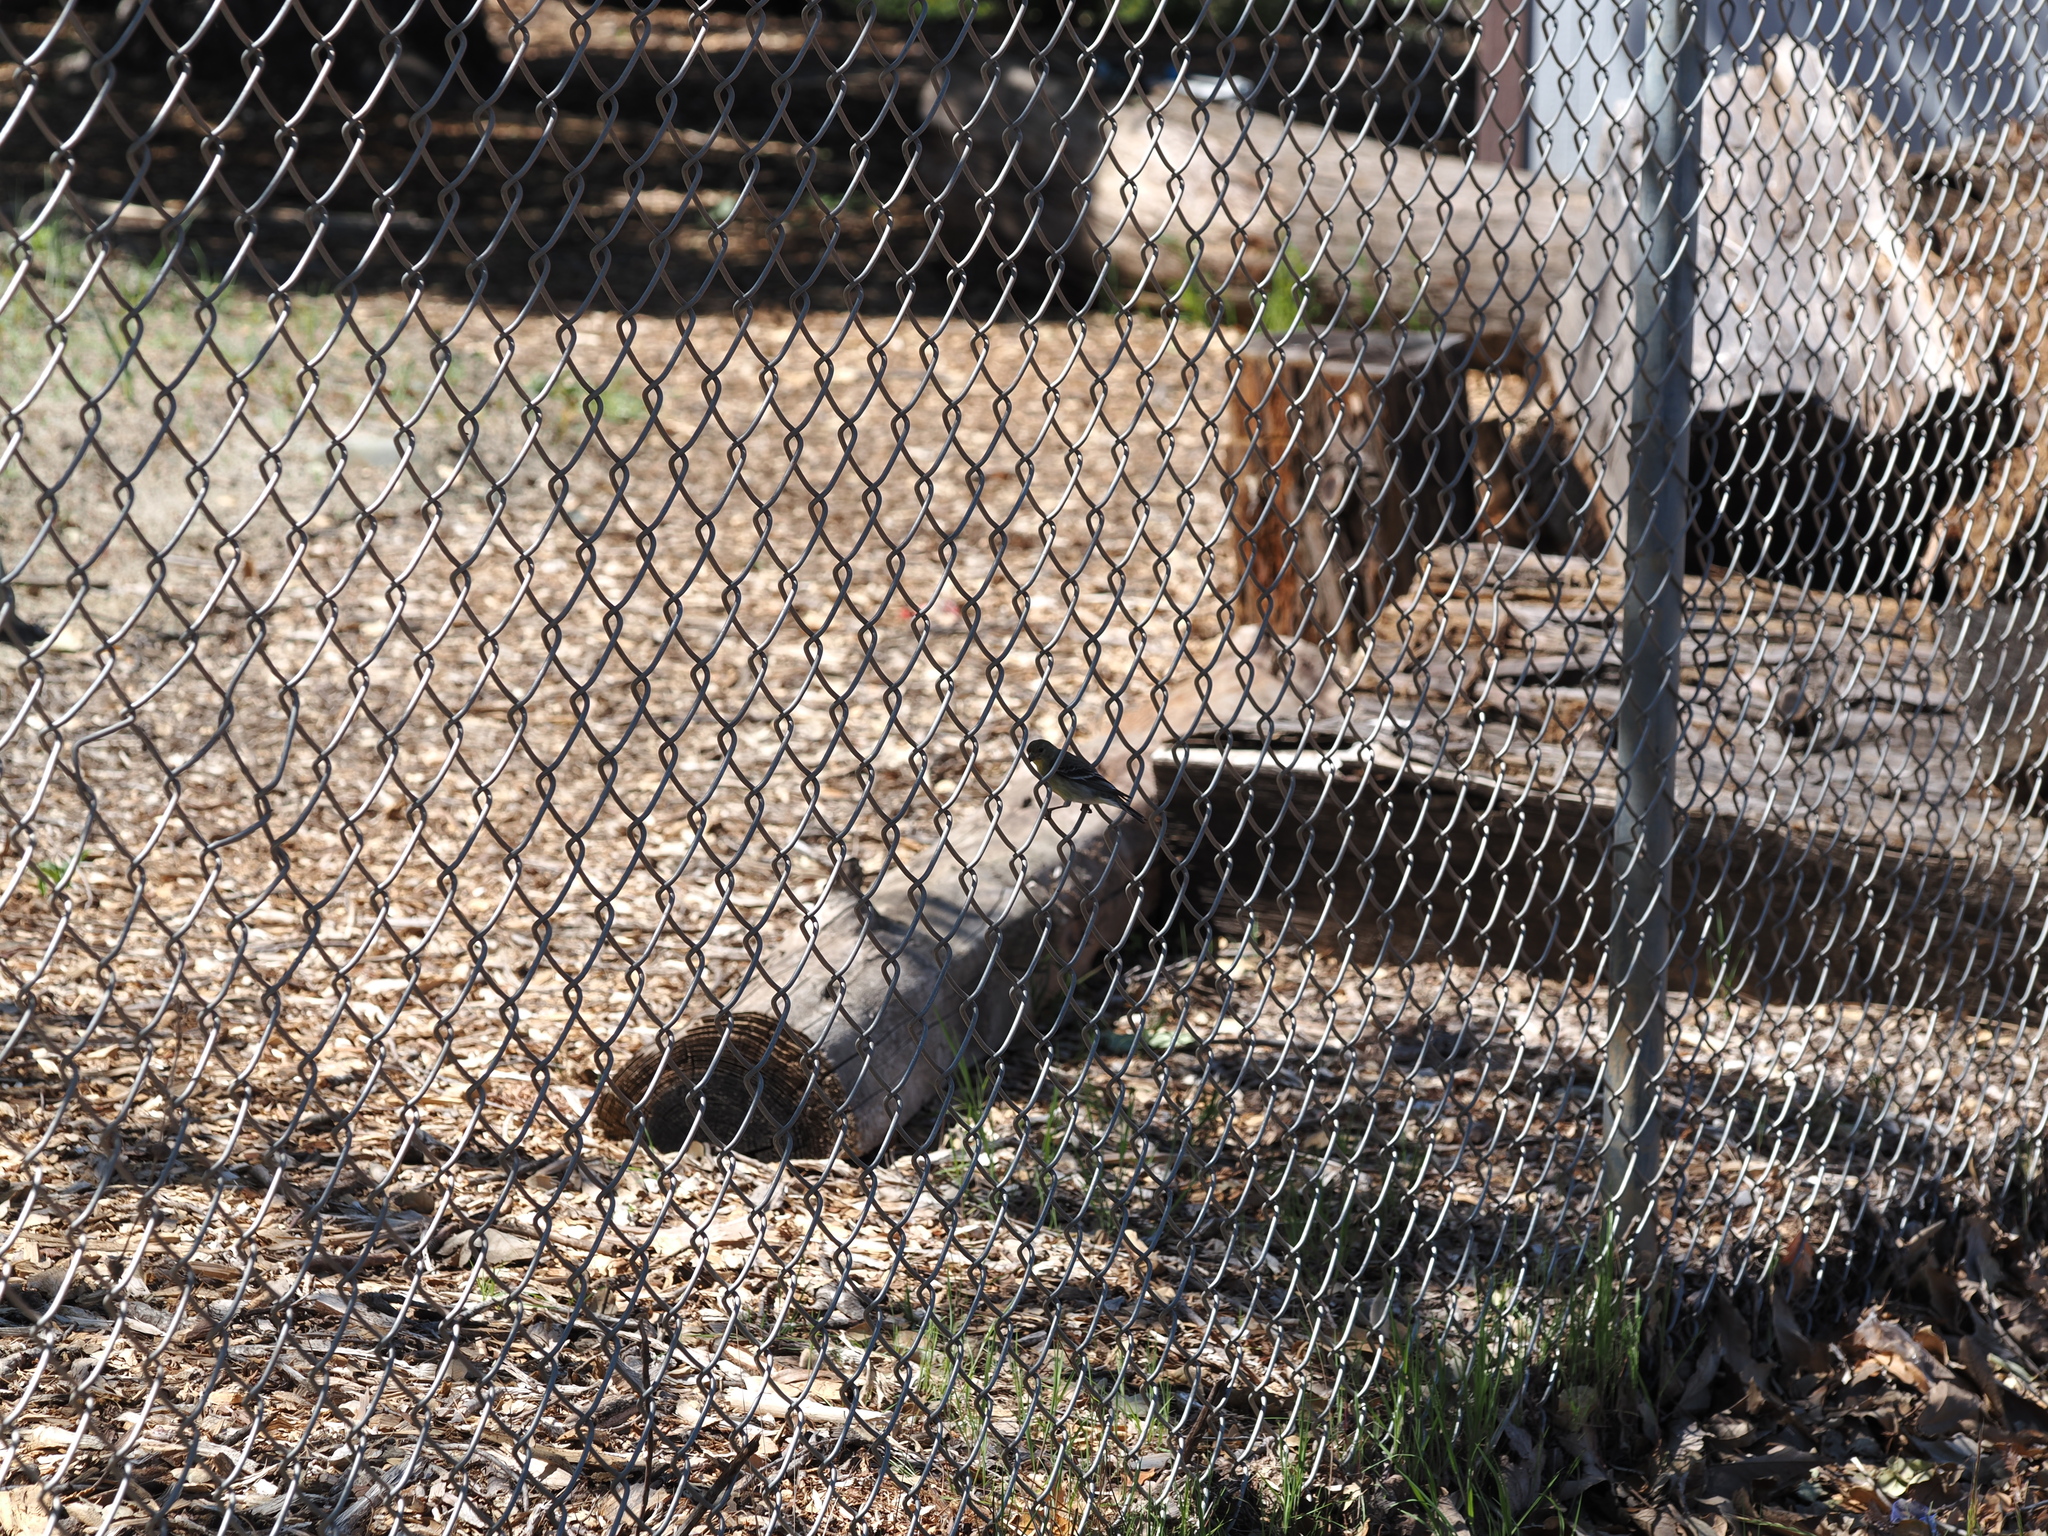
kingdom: Animalia
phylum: Chordata
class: Aves
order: Passeriformes
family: Fringillidae
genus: Spinus
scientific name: Spinus psaltria
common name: Lesser goldfinch
